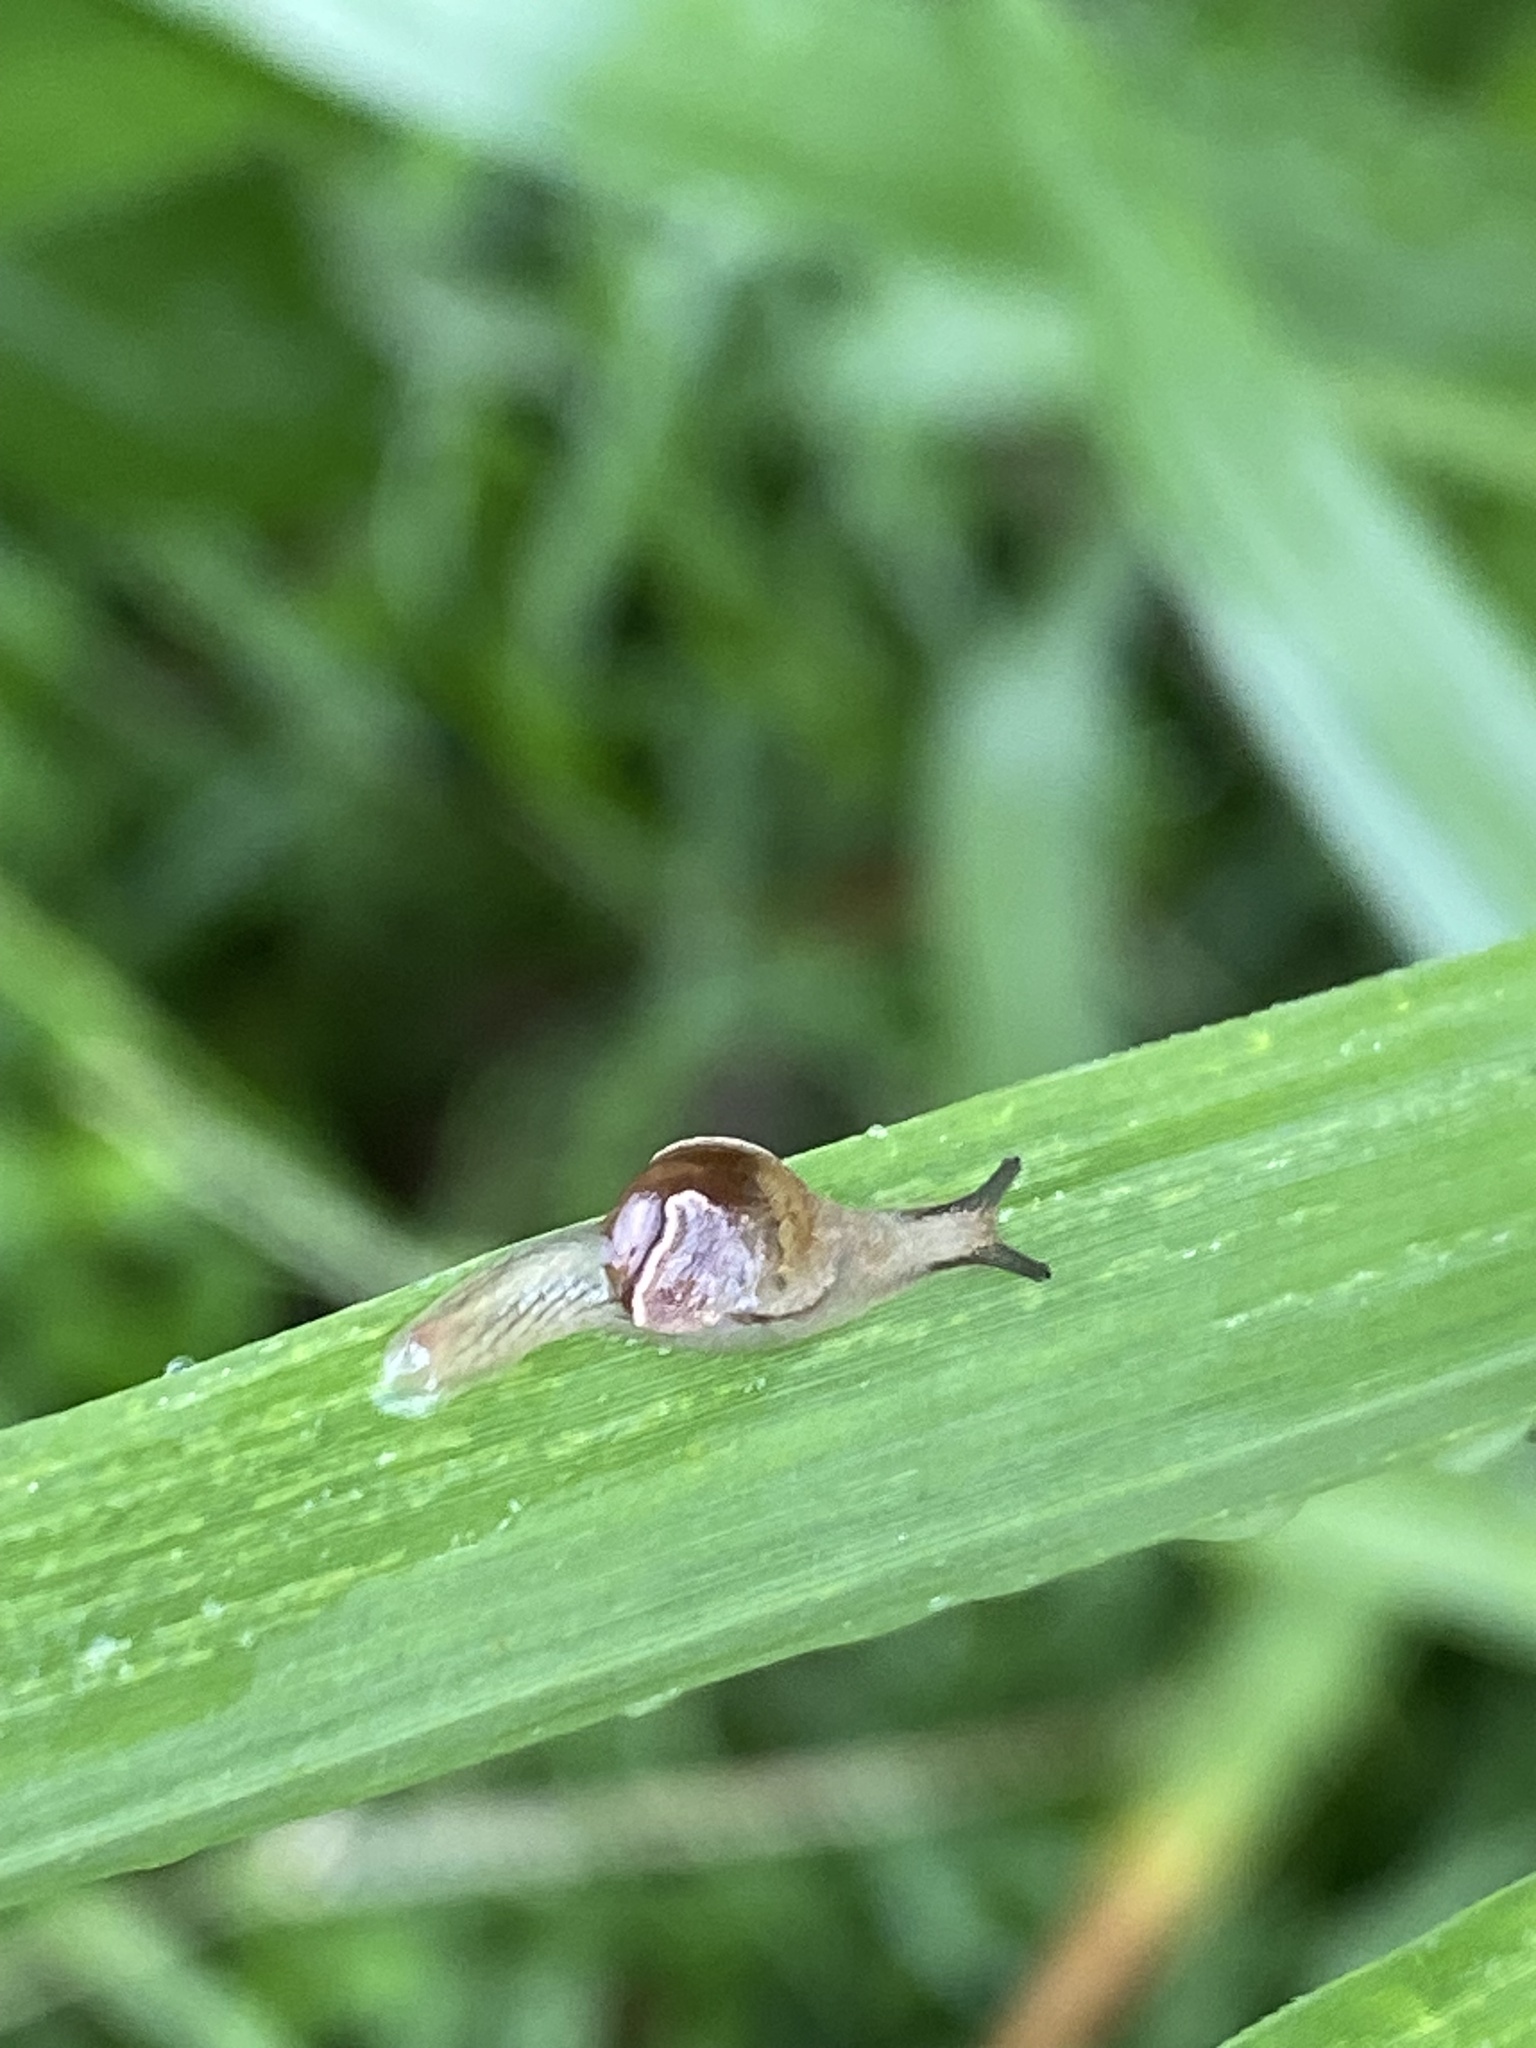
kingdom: Animalia
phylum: Mollusca
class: Gastropoda
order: Stylommatophora
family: Helicarionidae
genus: Ubiquitarion
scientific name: Ubiquitarion iridis
